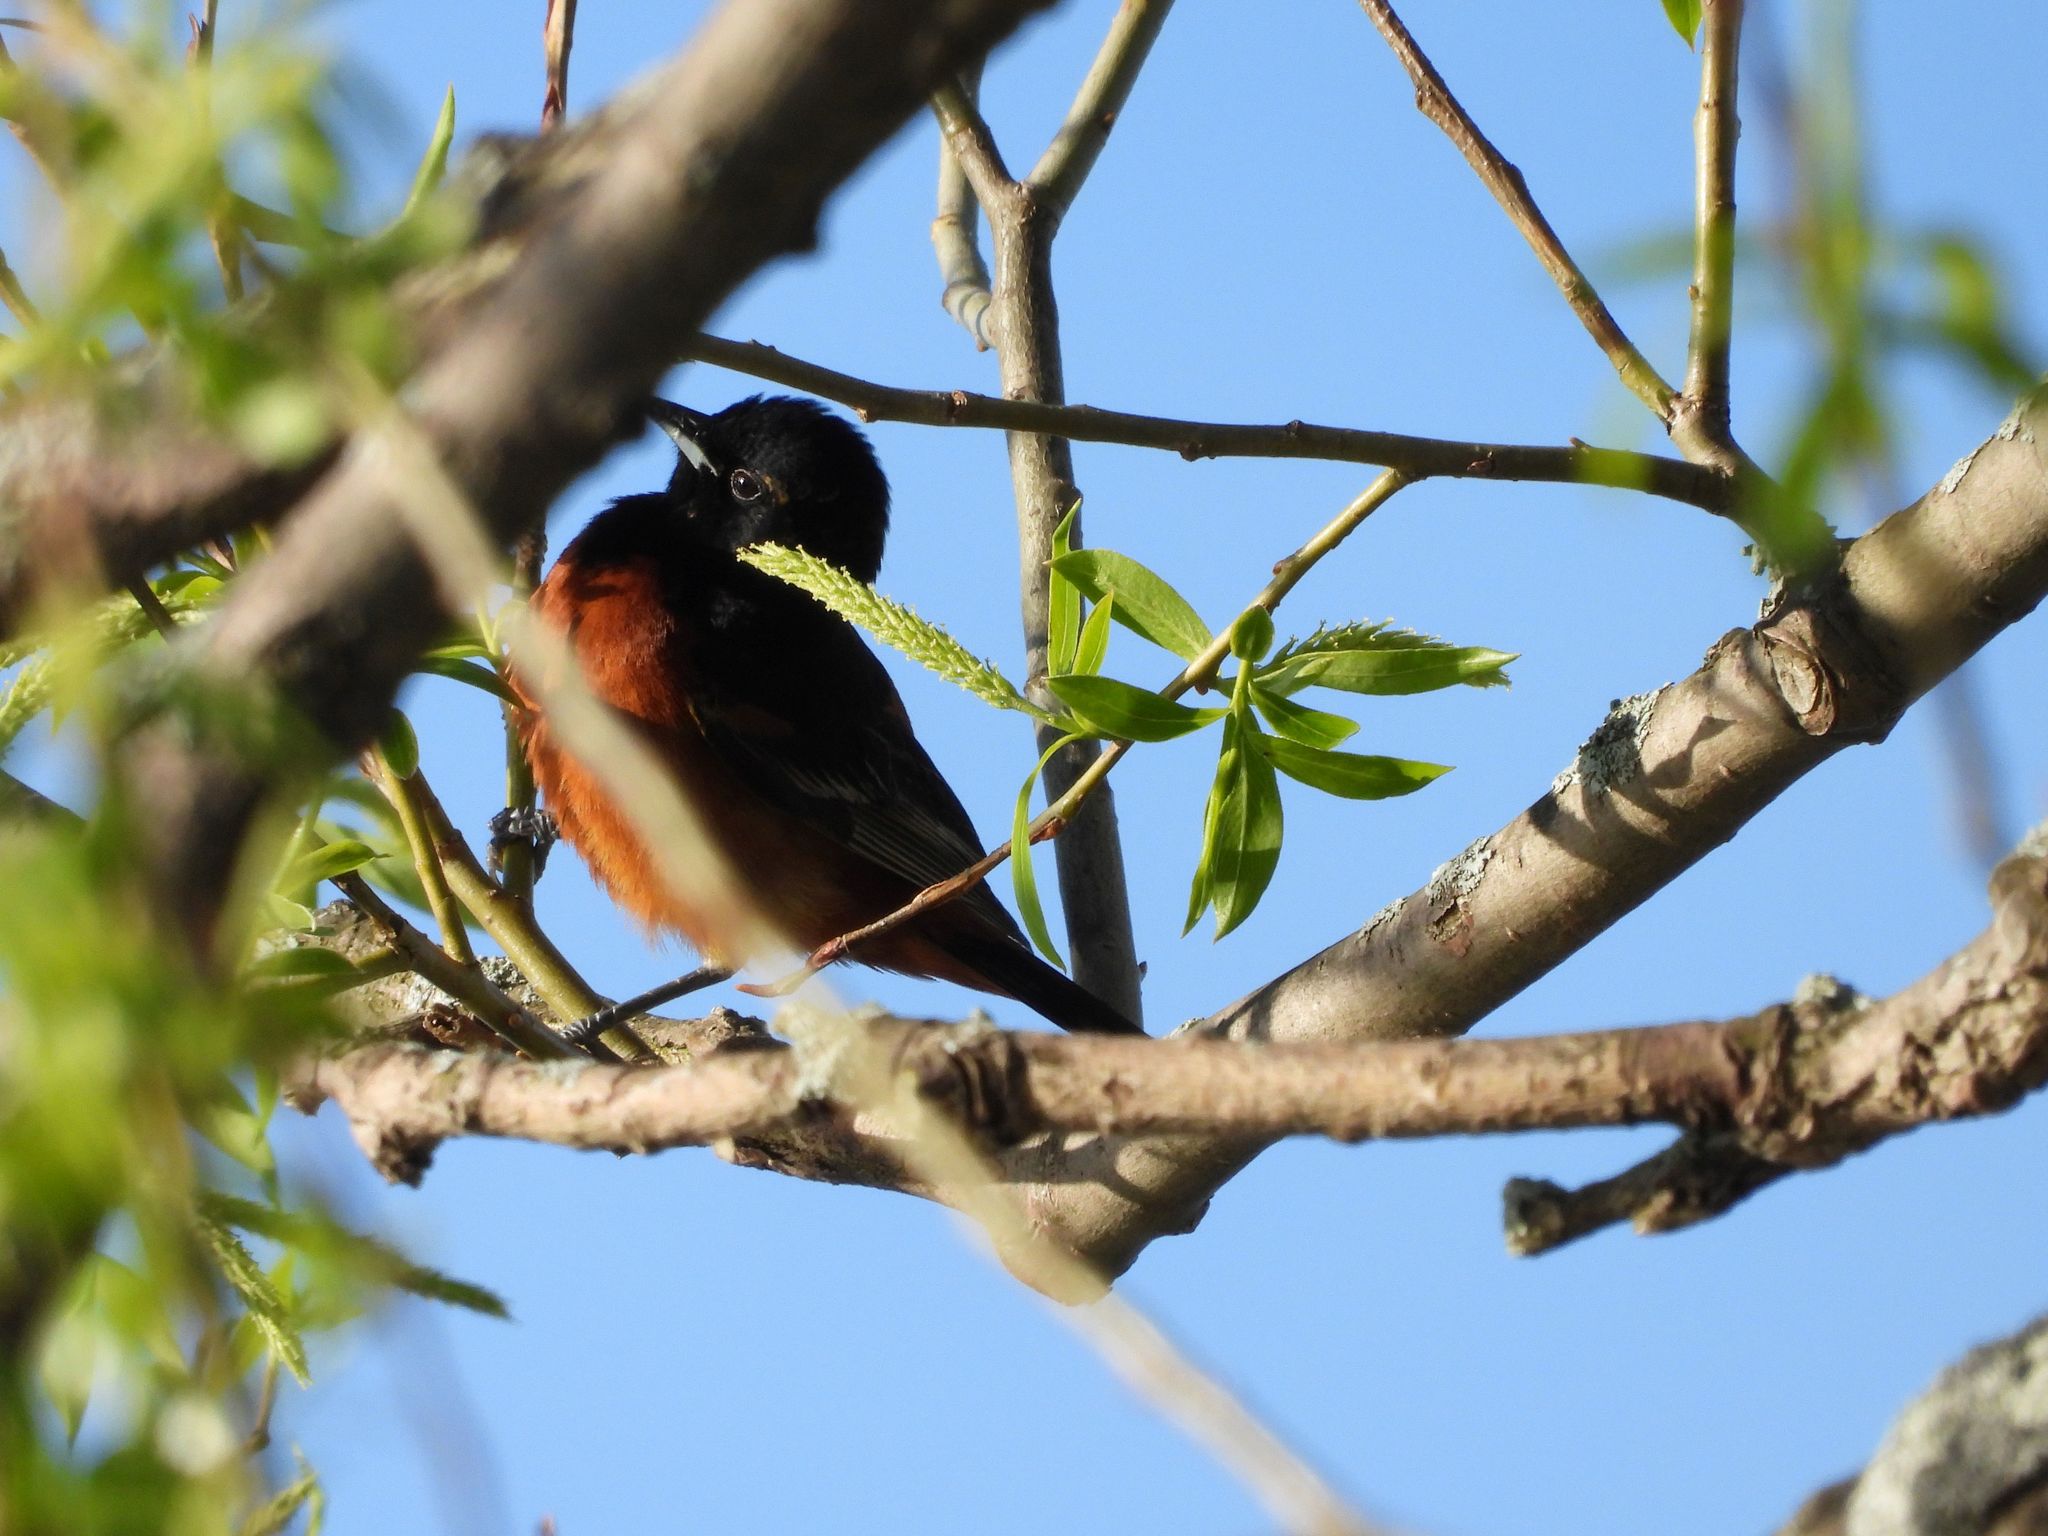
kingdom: Animalia
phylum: Chordata
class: Aves
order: Passeriformes
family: Icteridae
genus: Icterus
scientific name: Icterus spurius
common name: Orchard oriole
